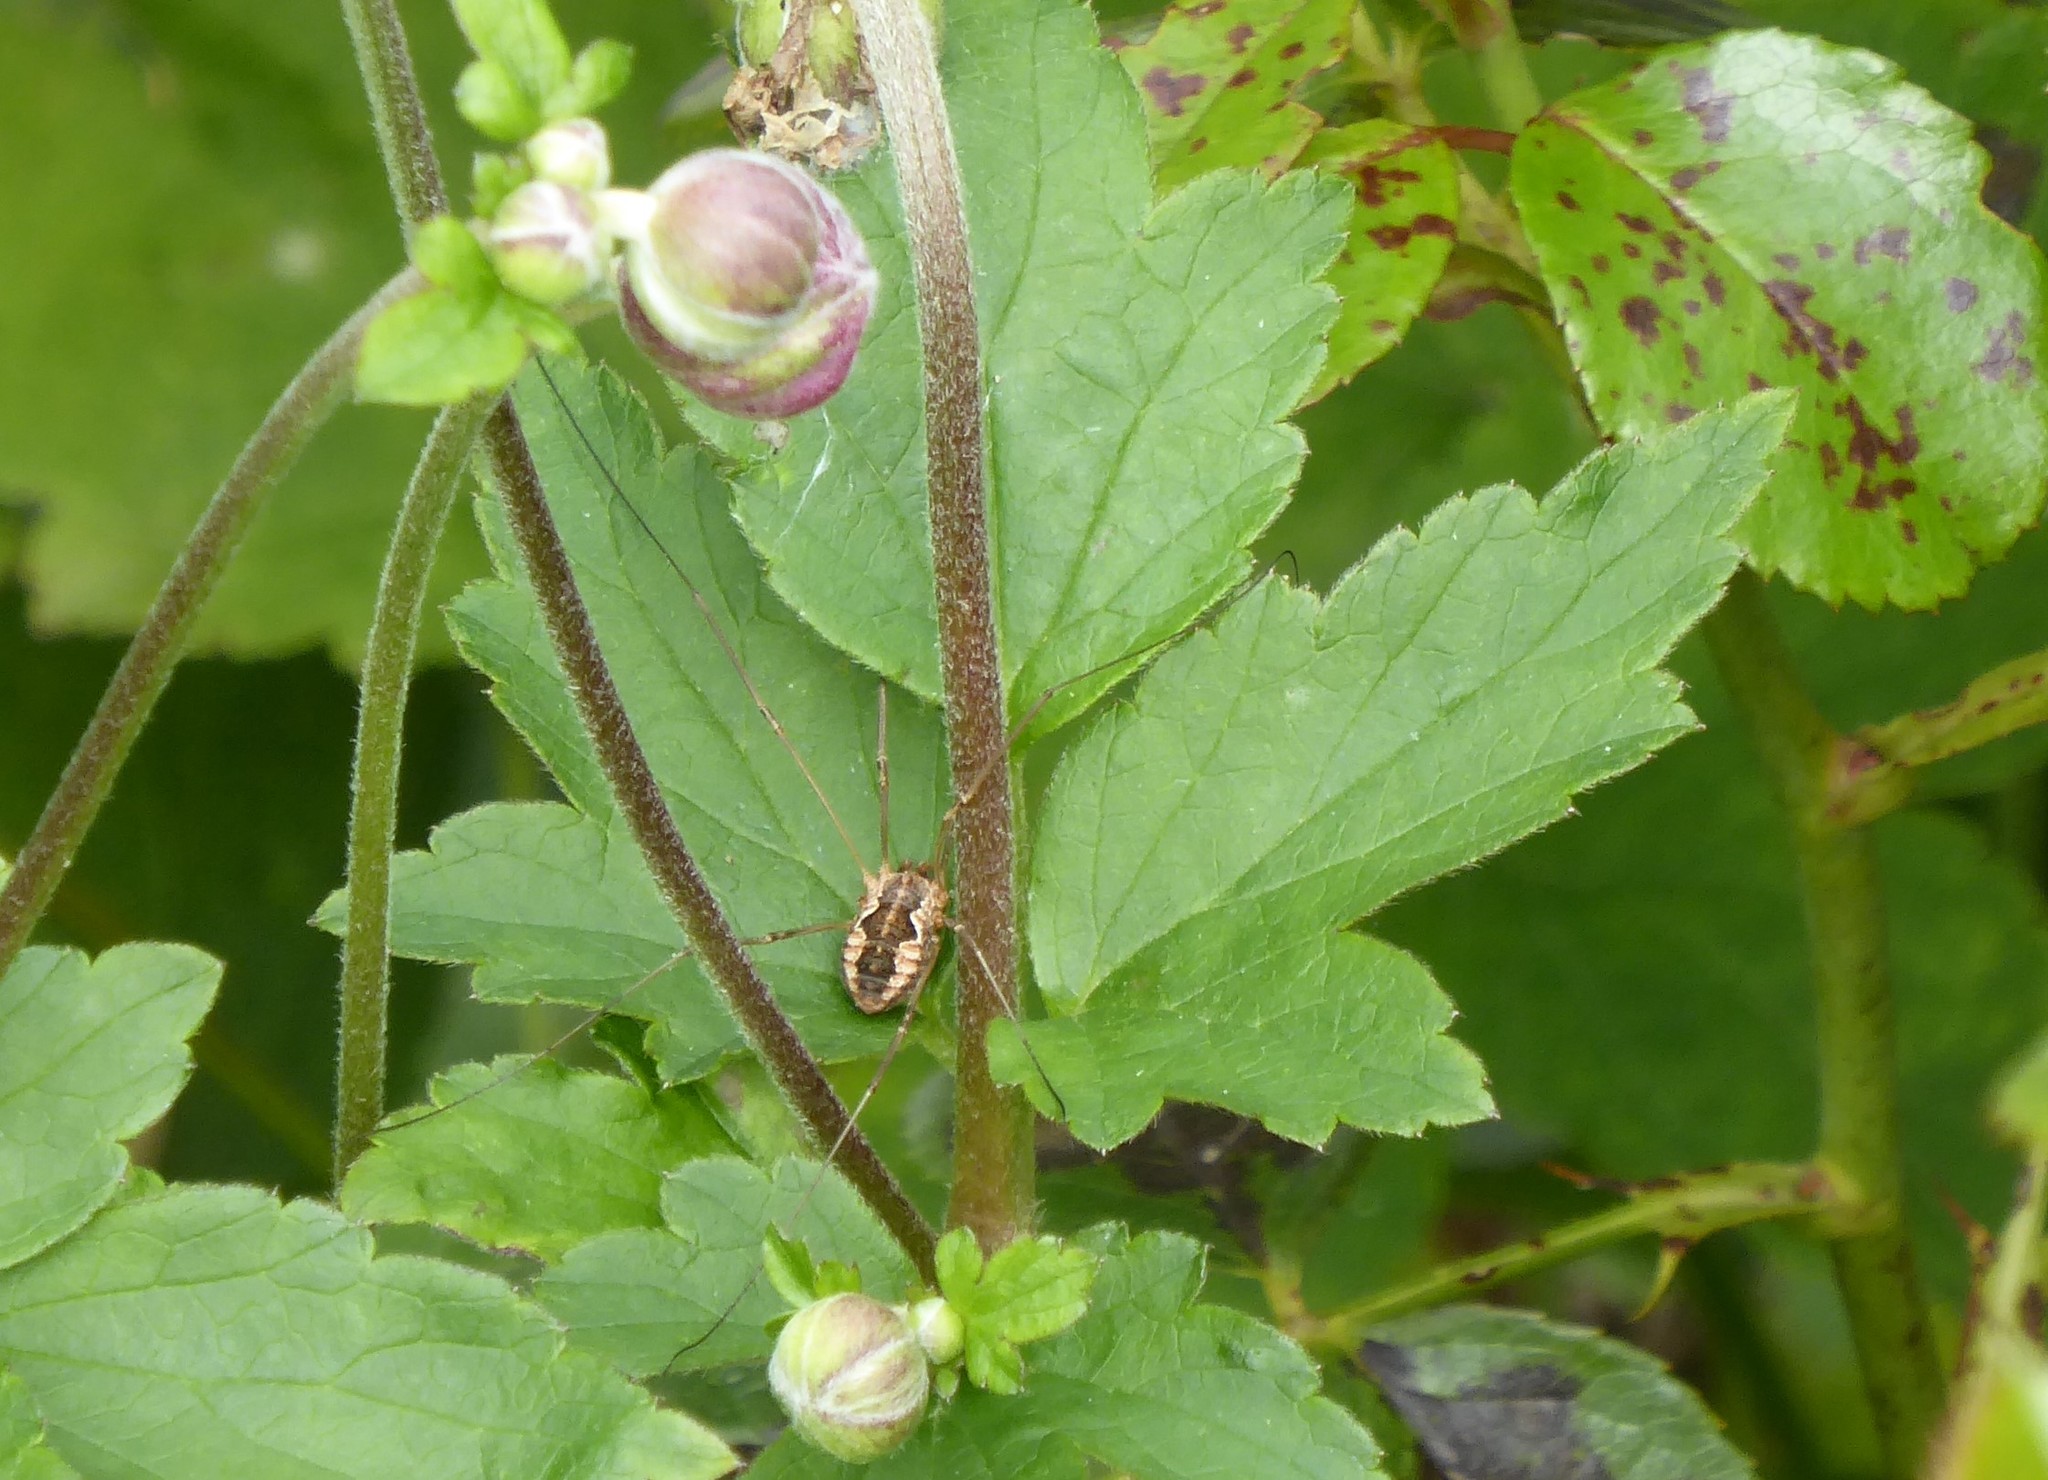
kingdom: Animalia
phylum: Arthropoda
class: Arachnida
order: Opiliones
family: Phalangiidae
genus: Phalangium
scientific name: Phalangium opilio
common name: Daddy longleg
